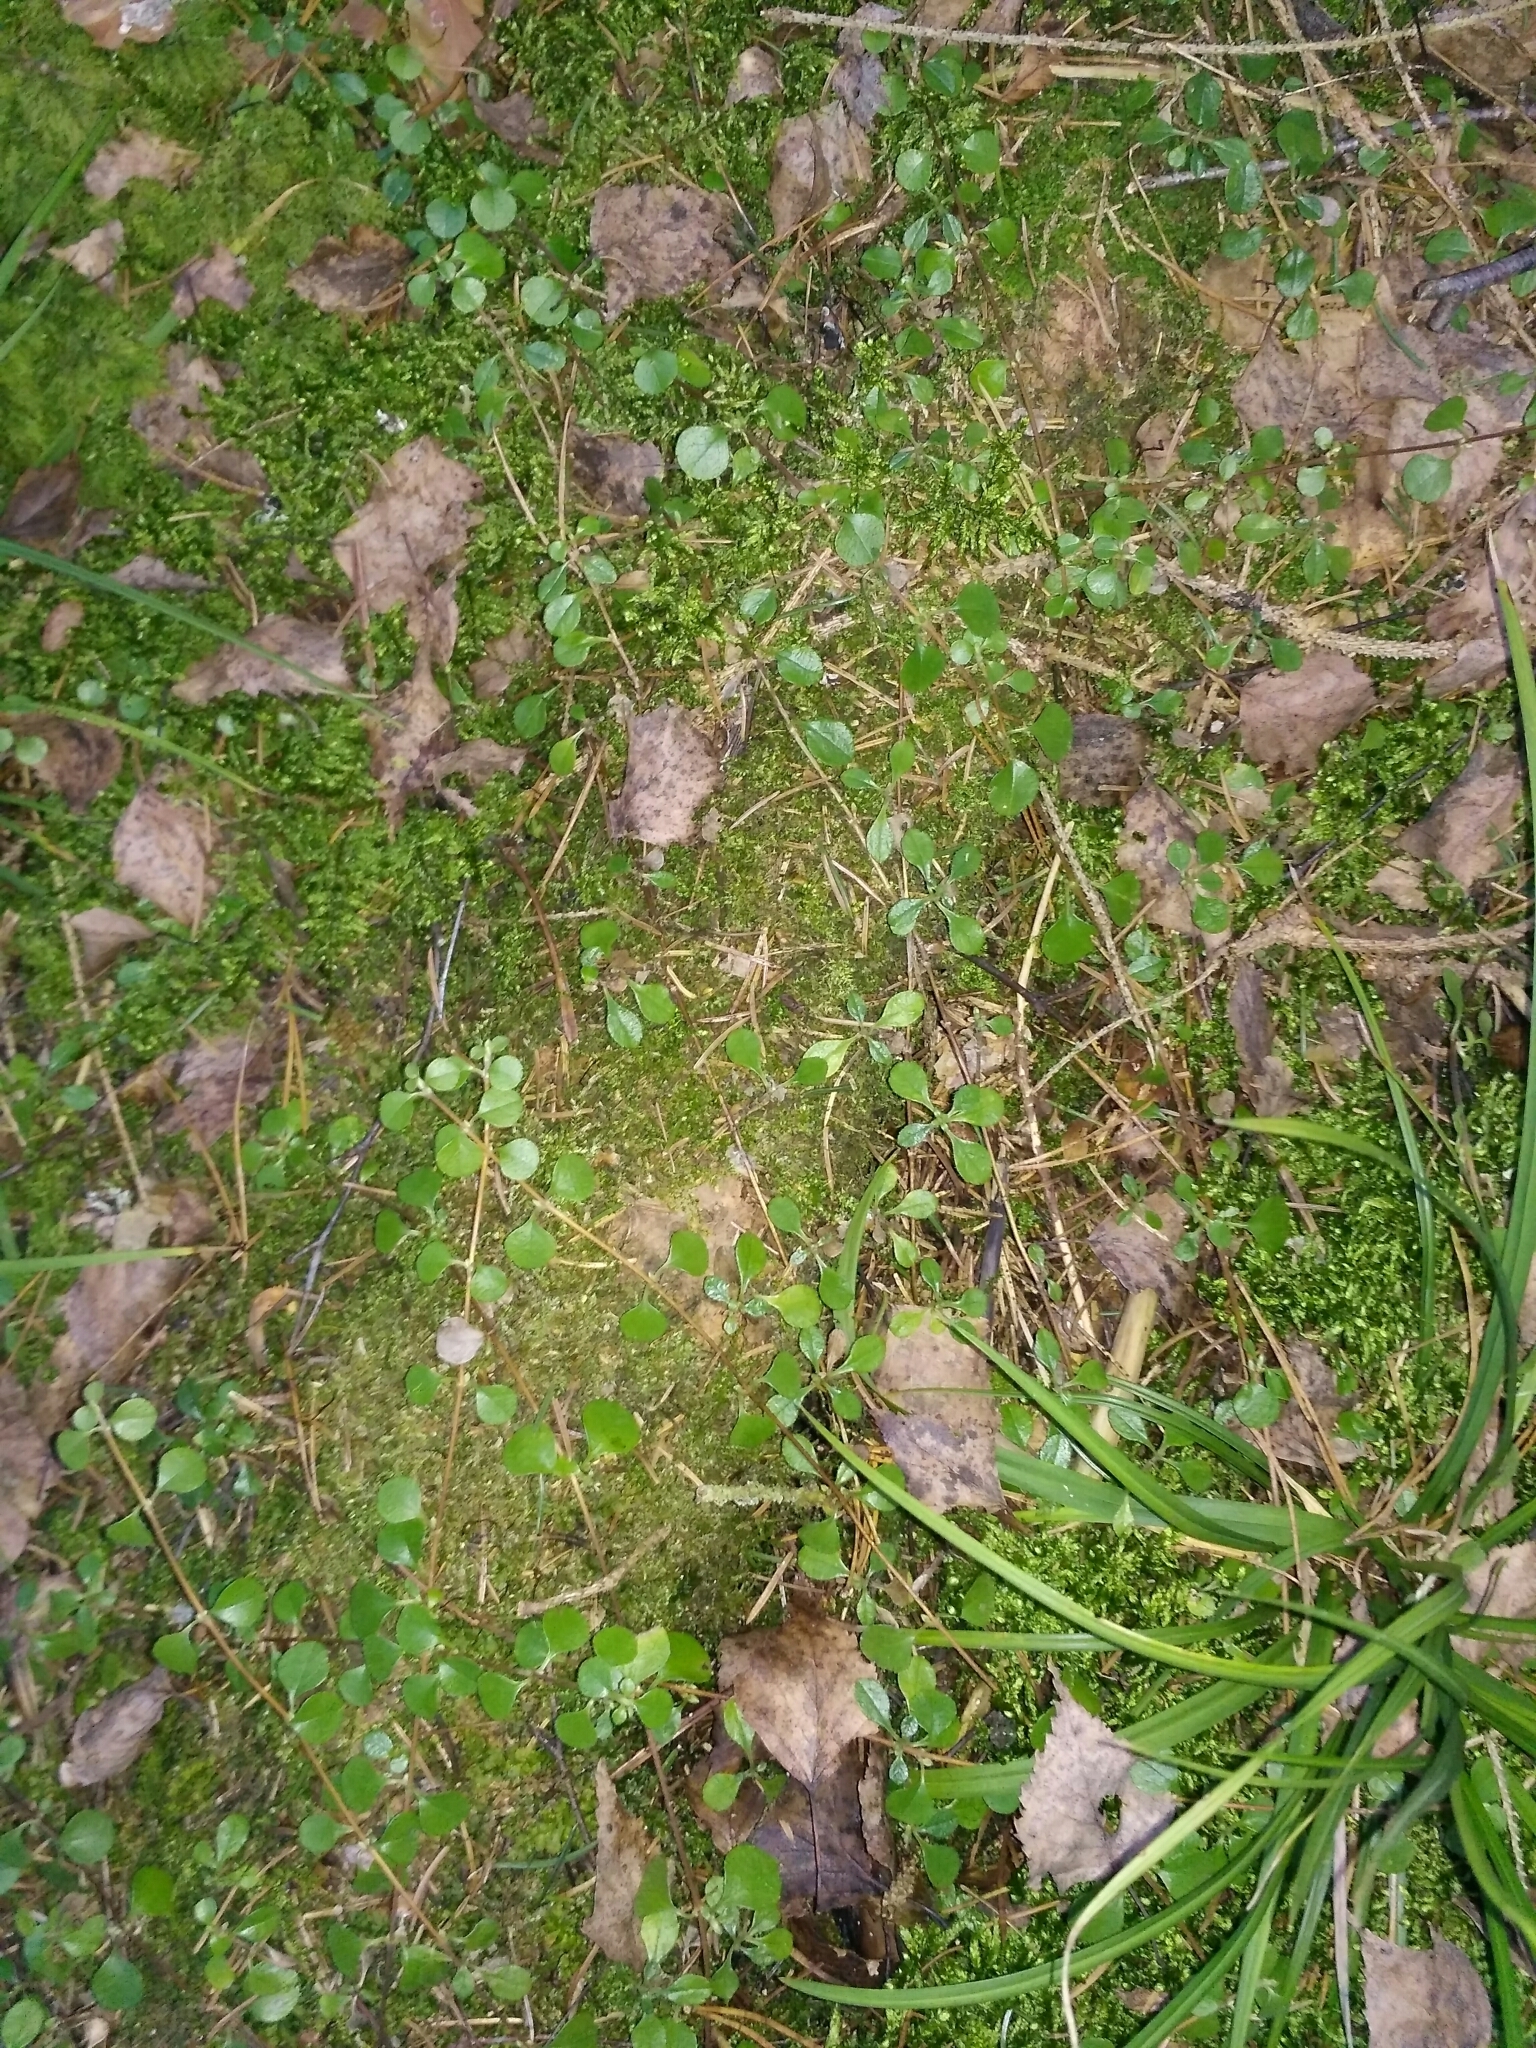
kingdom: Plantae
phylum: Tracheophyta
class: Magnoliopsida
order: Dipsacales
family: Caprifoliaceae
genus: Linnaea
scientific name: Linnaea borealis
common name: Twinflower
